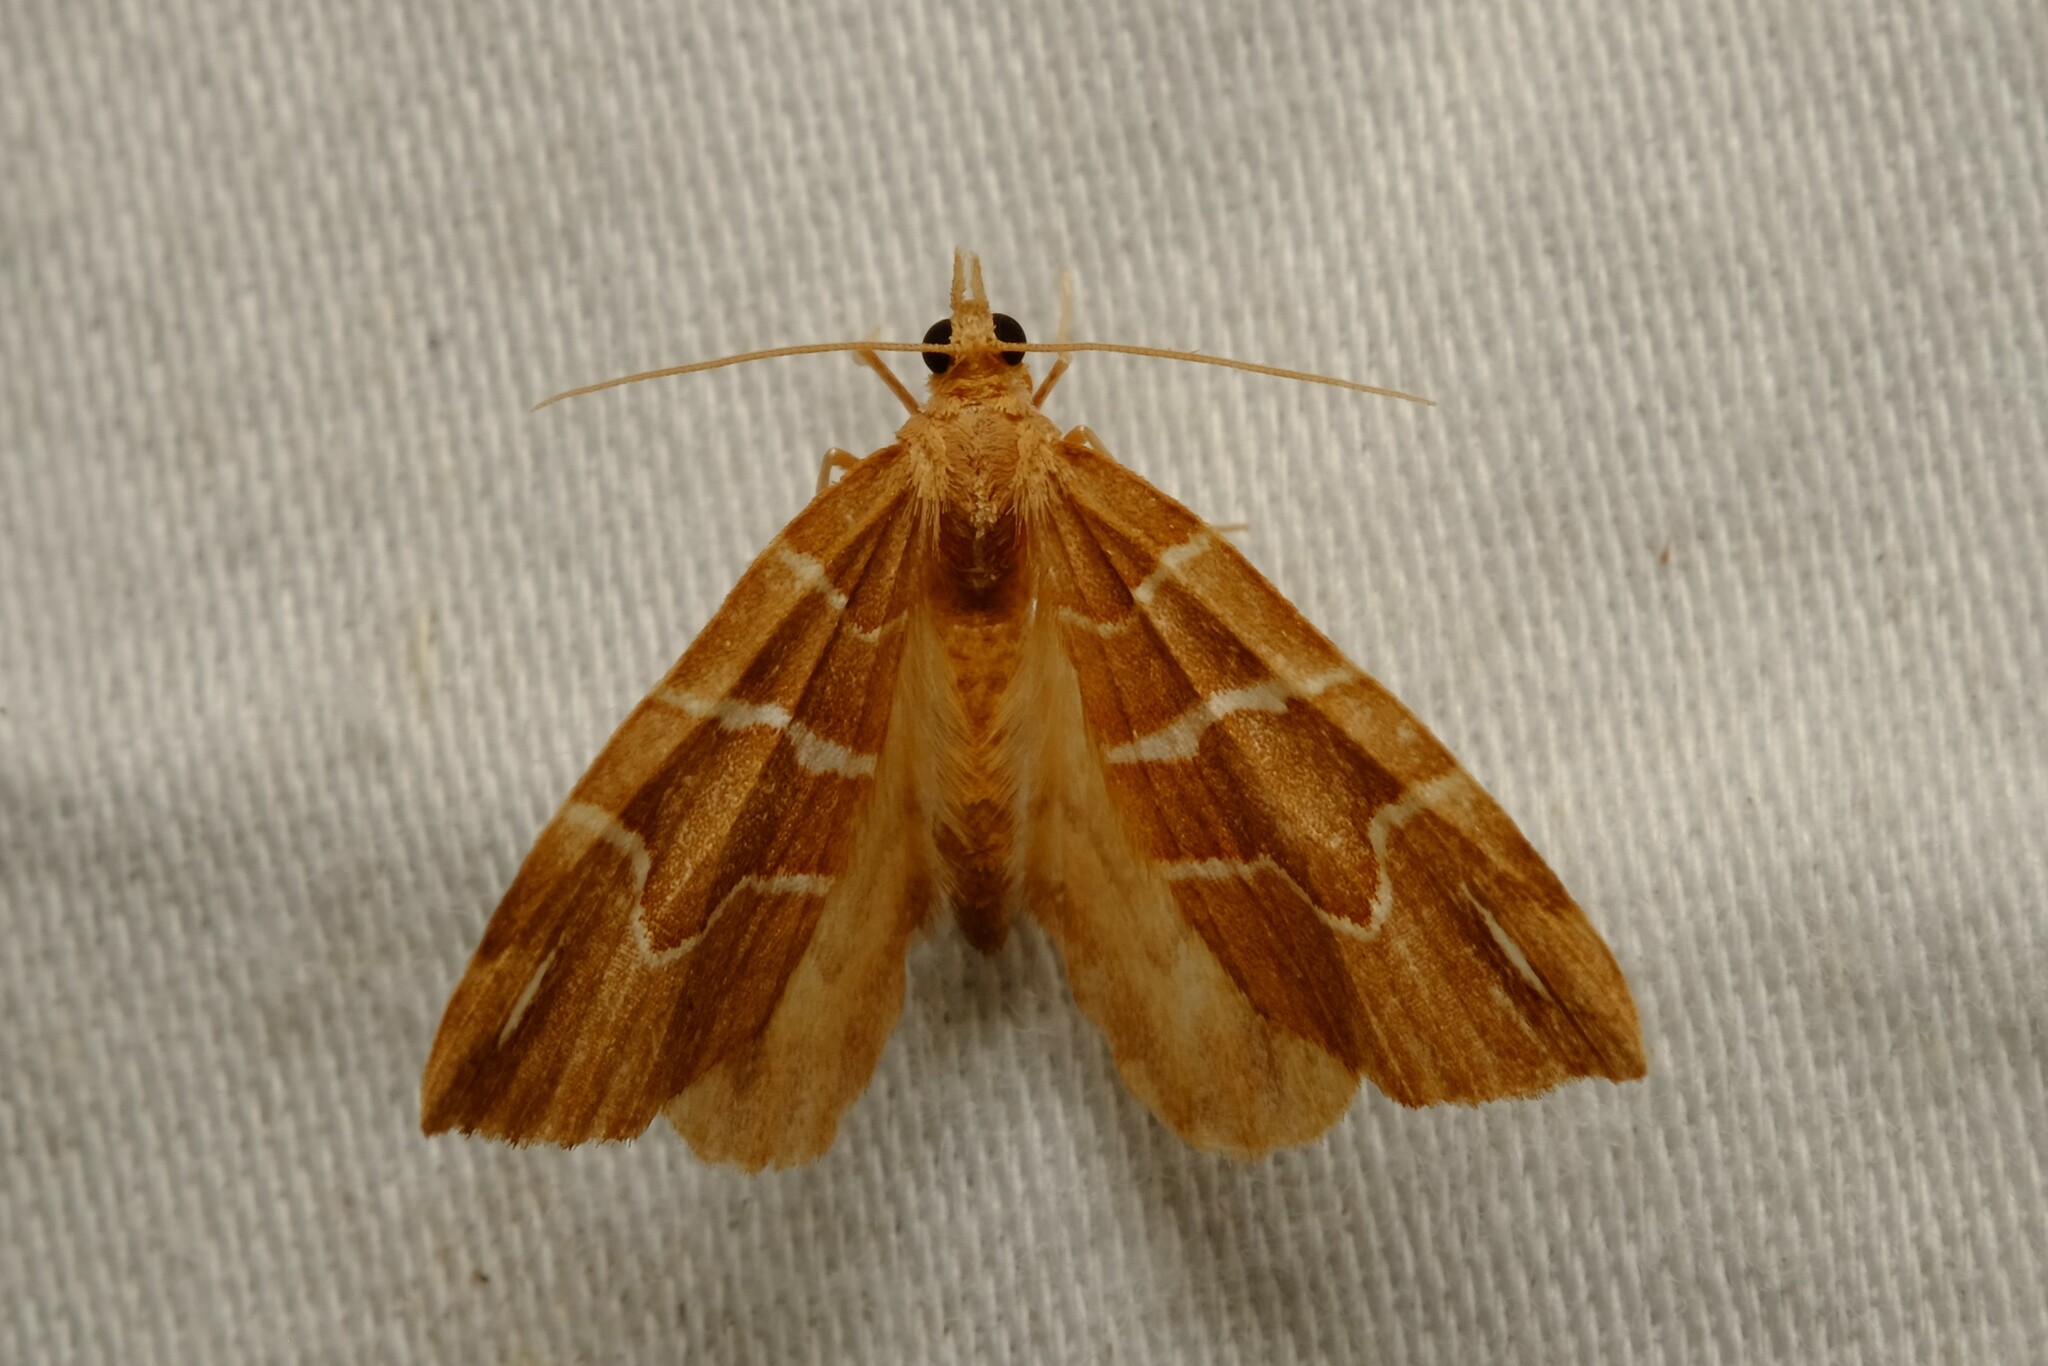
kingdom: Animalia
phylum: Arthropoda
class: Insecta
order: Lepidoptera
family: Geometridae
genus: Chaetolopha
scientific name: Chaetolopha leucophragma
